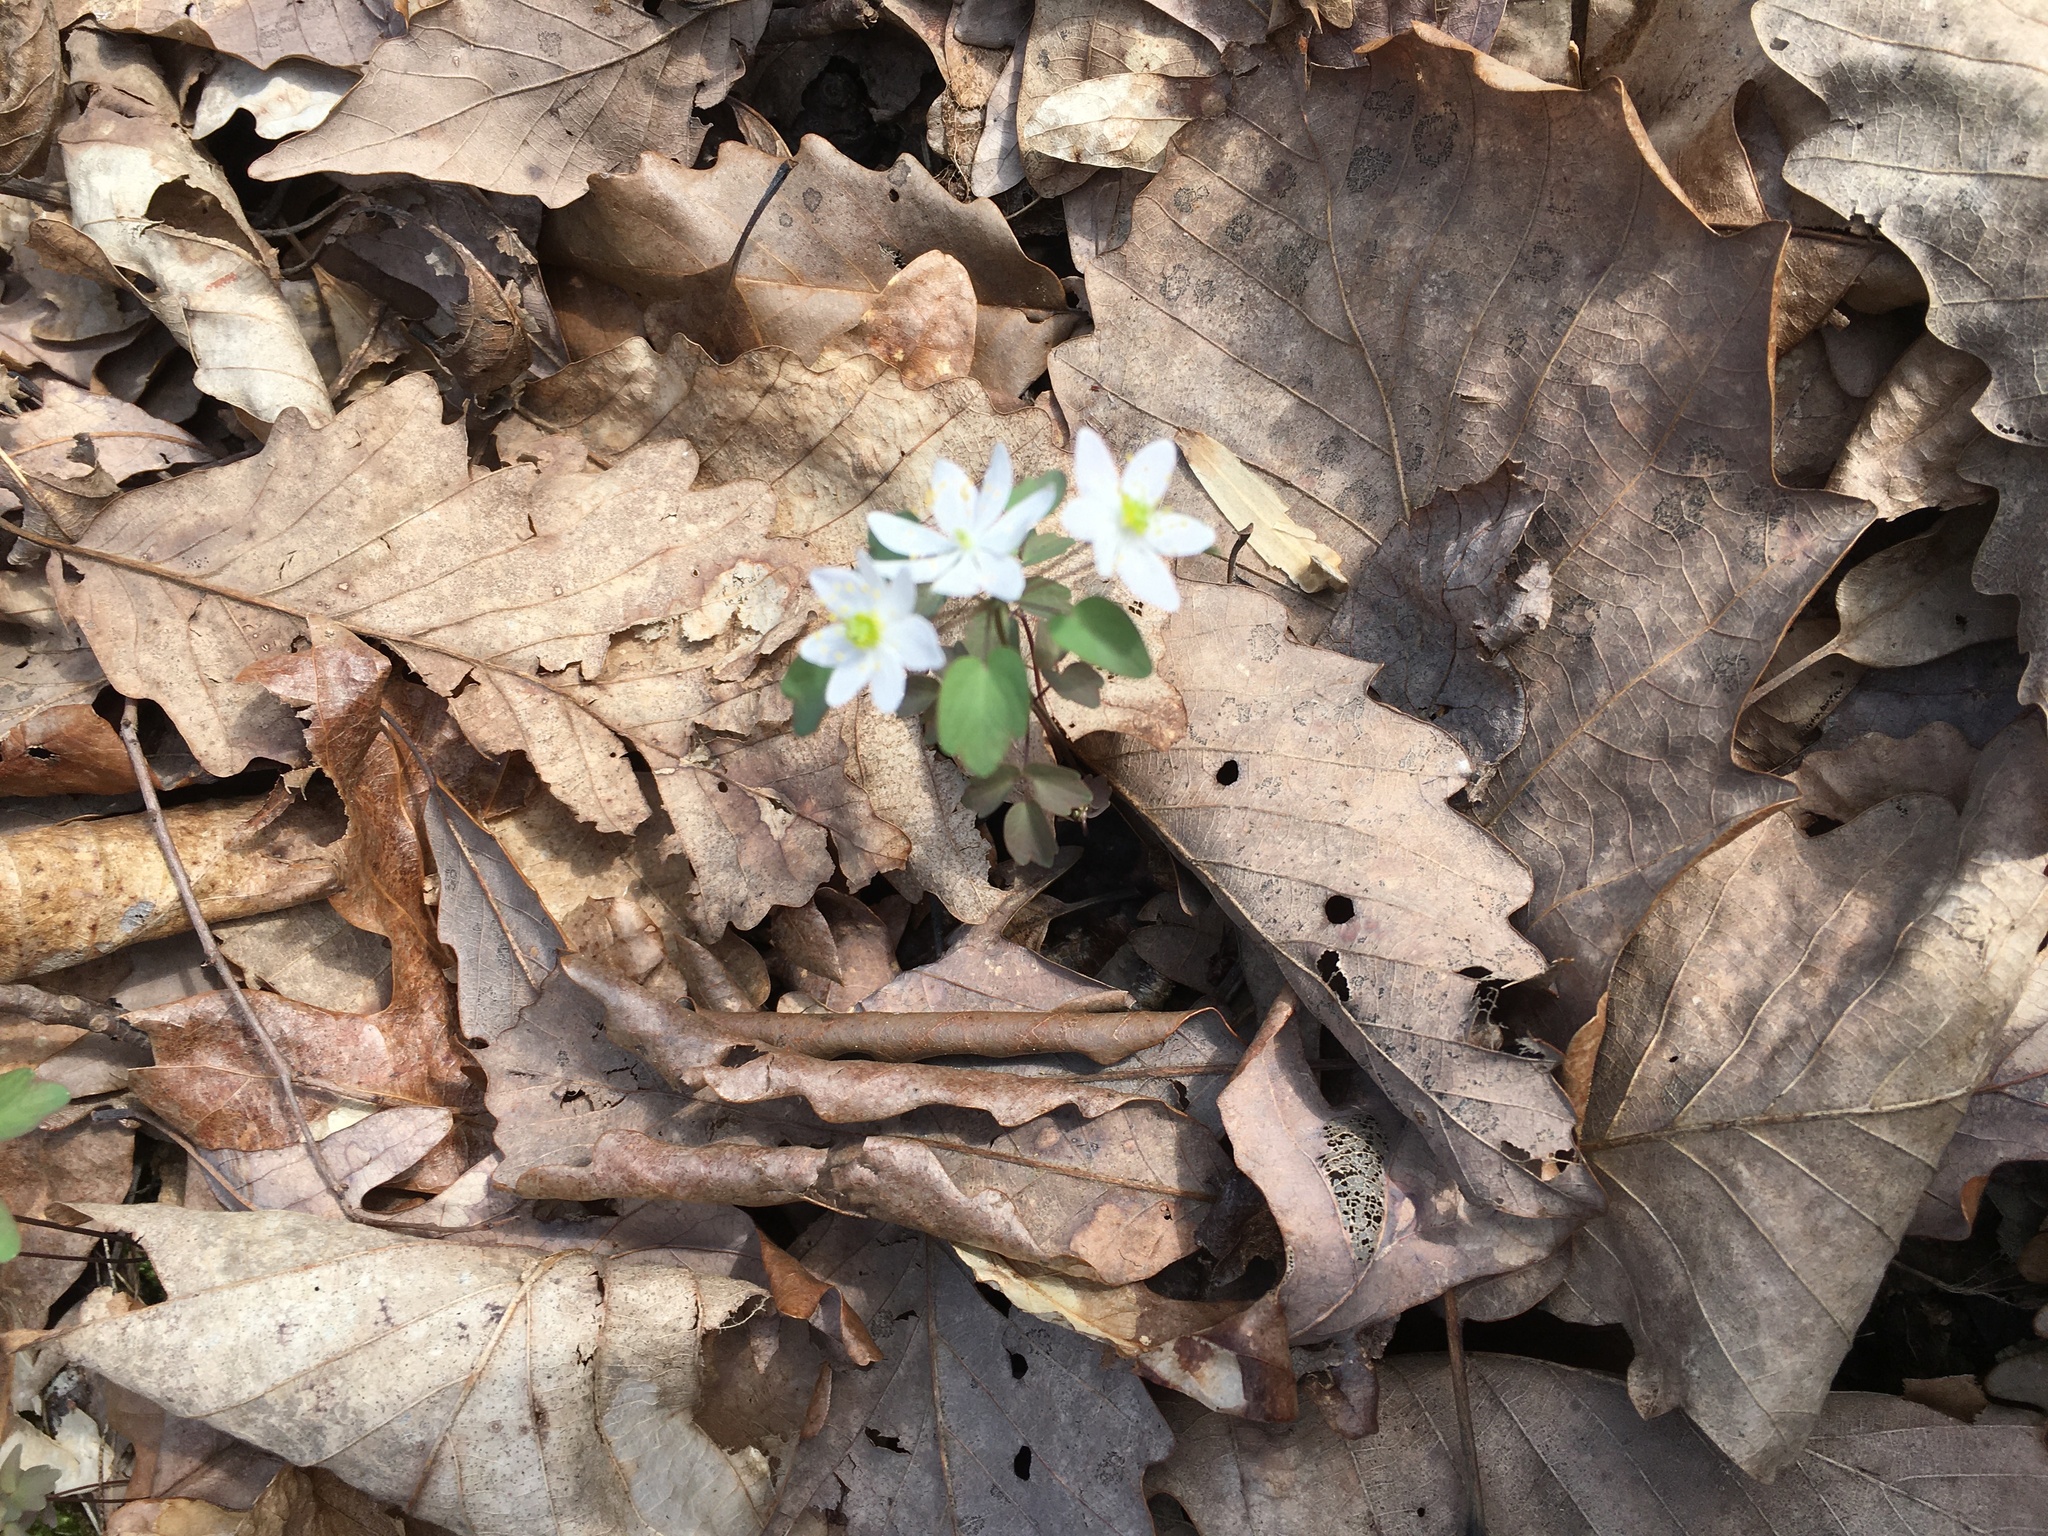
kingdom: Plantae
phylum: Tracheophyta
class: Magnoliopsida
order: Ranunculales
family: Ranunculaceae
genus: Thalictrum
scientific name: Thalictrum thalictroides
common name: Rue-anemone
